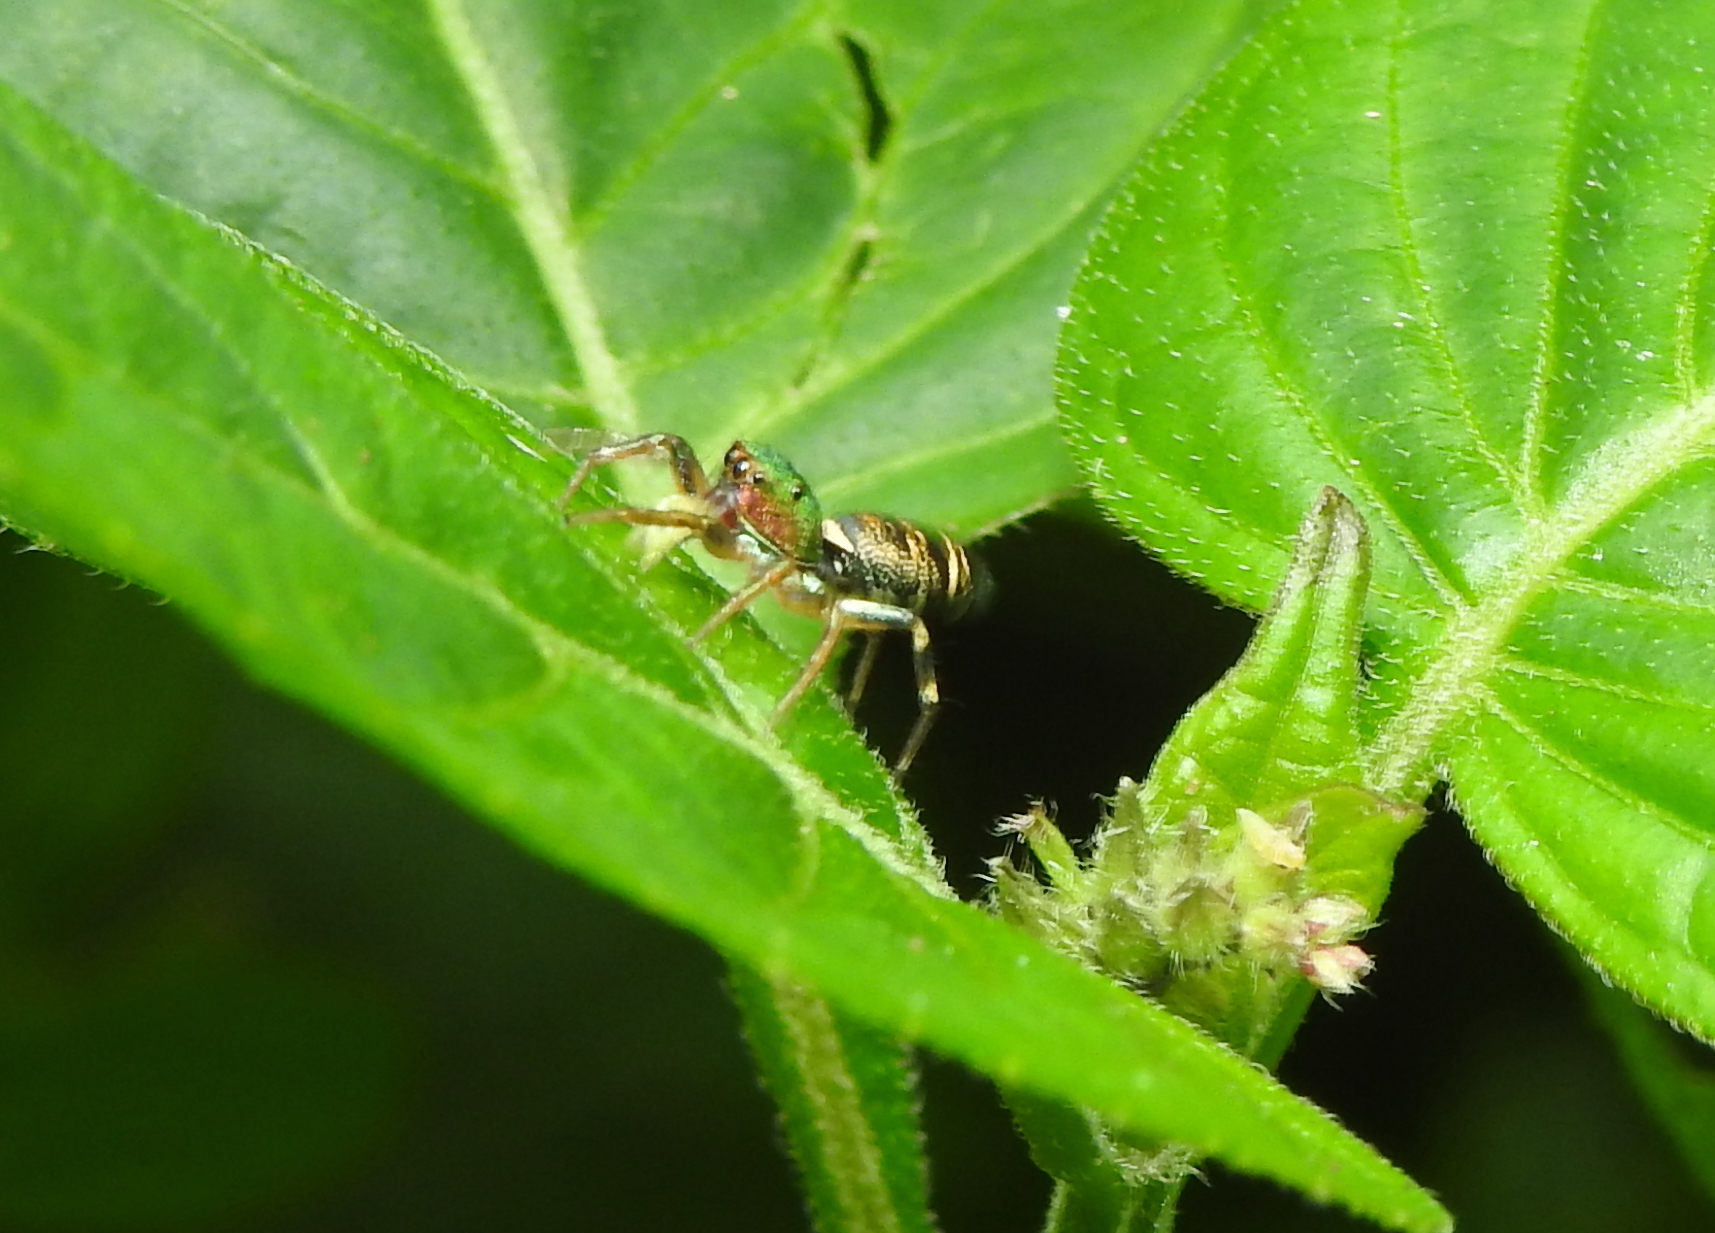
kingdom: Animalia
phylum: Arthropoda
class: Arachnida
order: Araneae
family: Salticidae
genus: Cosmophasis
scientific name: Cosmophasis thalassina
